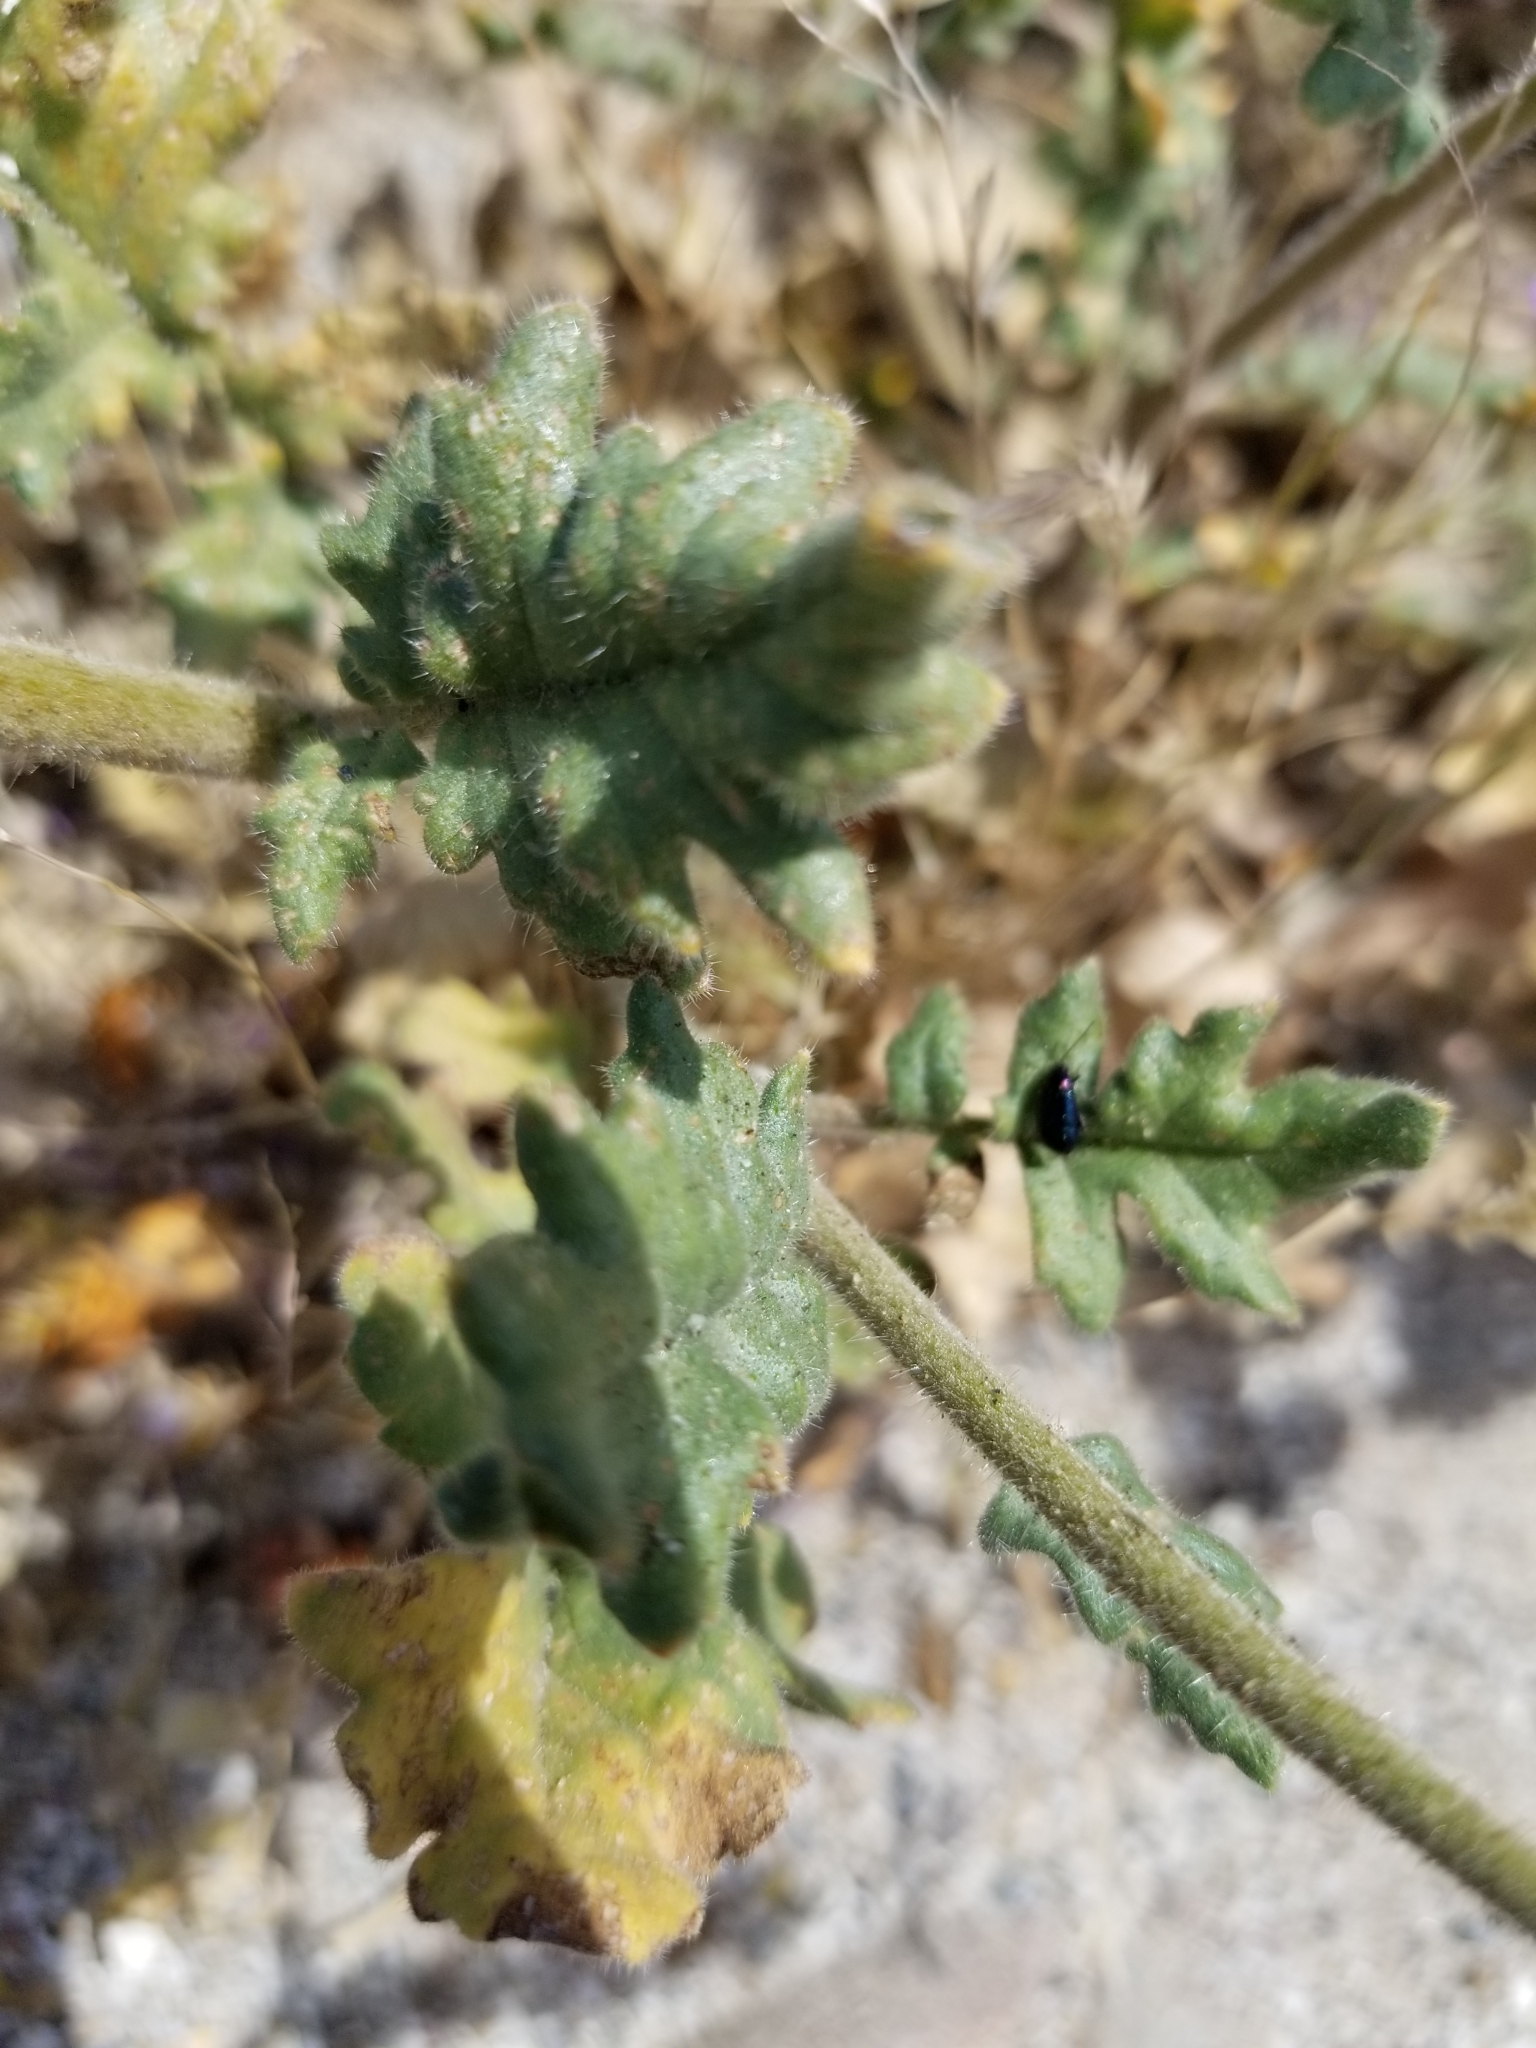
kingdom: Plantae
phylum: Tracheophyta
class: Magnoliopsida
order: Boraginales
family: Hydrophyllaceae
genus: Phacelia
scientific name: Phacelia crenulata
